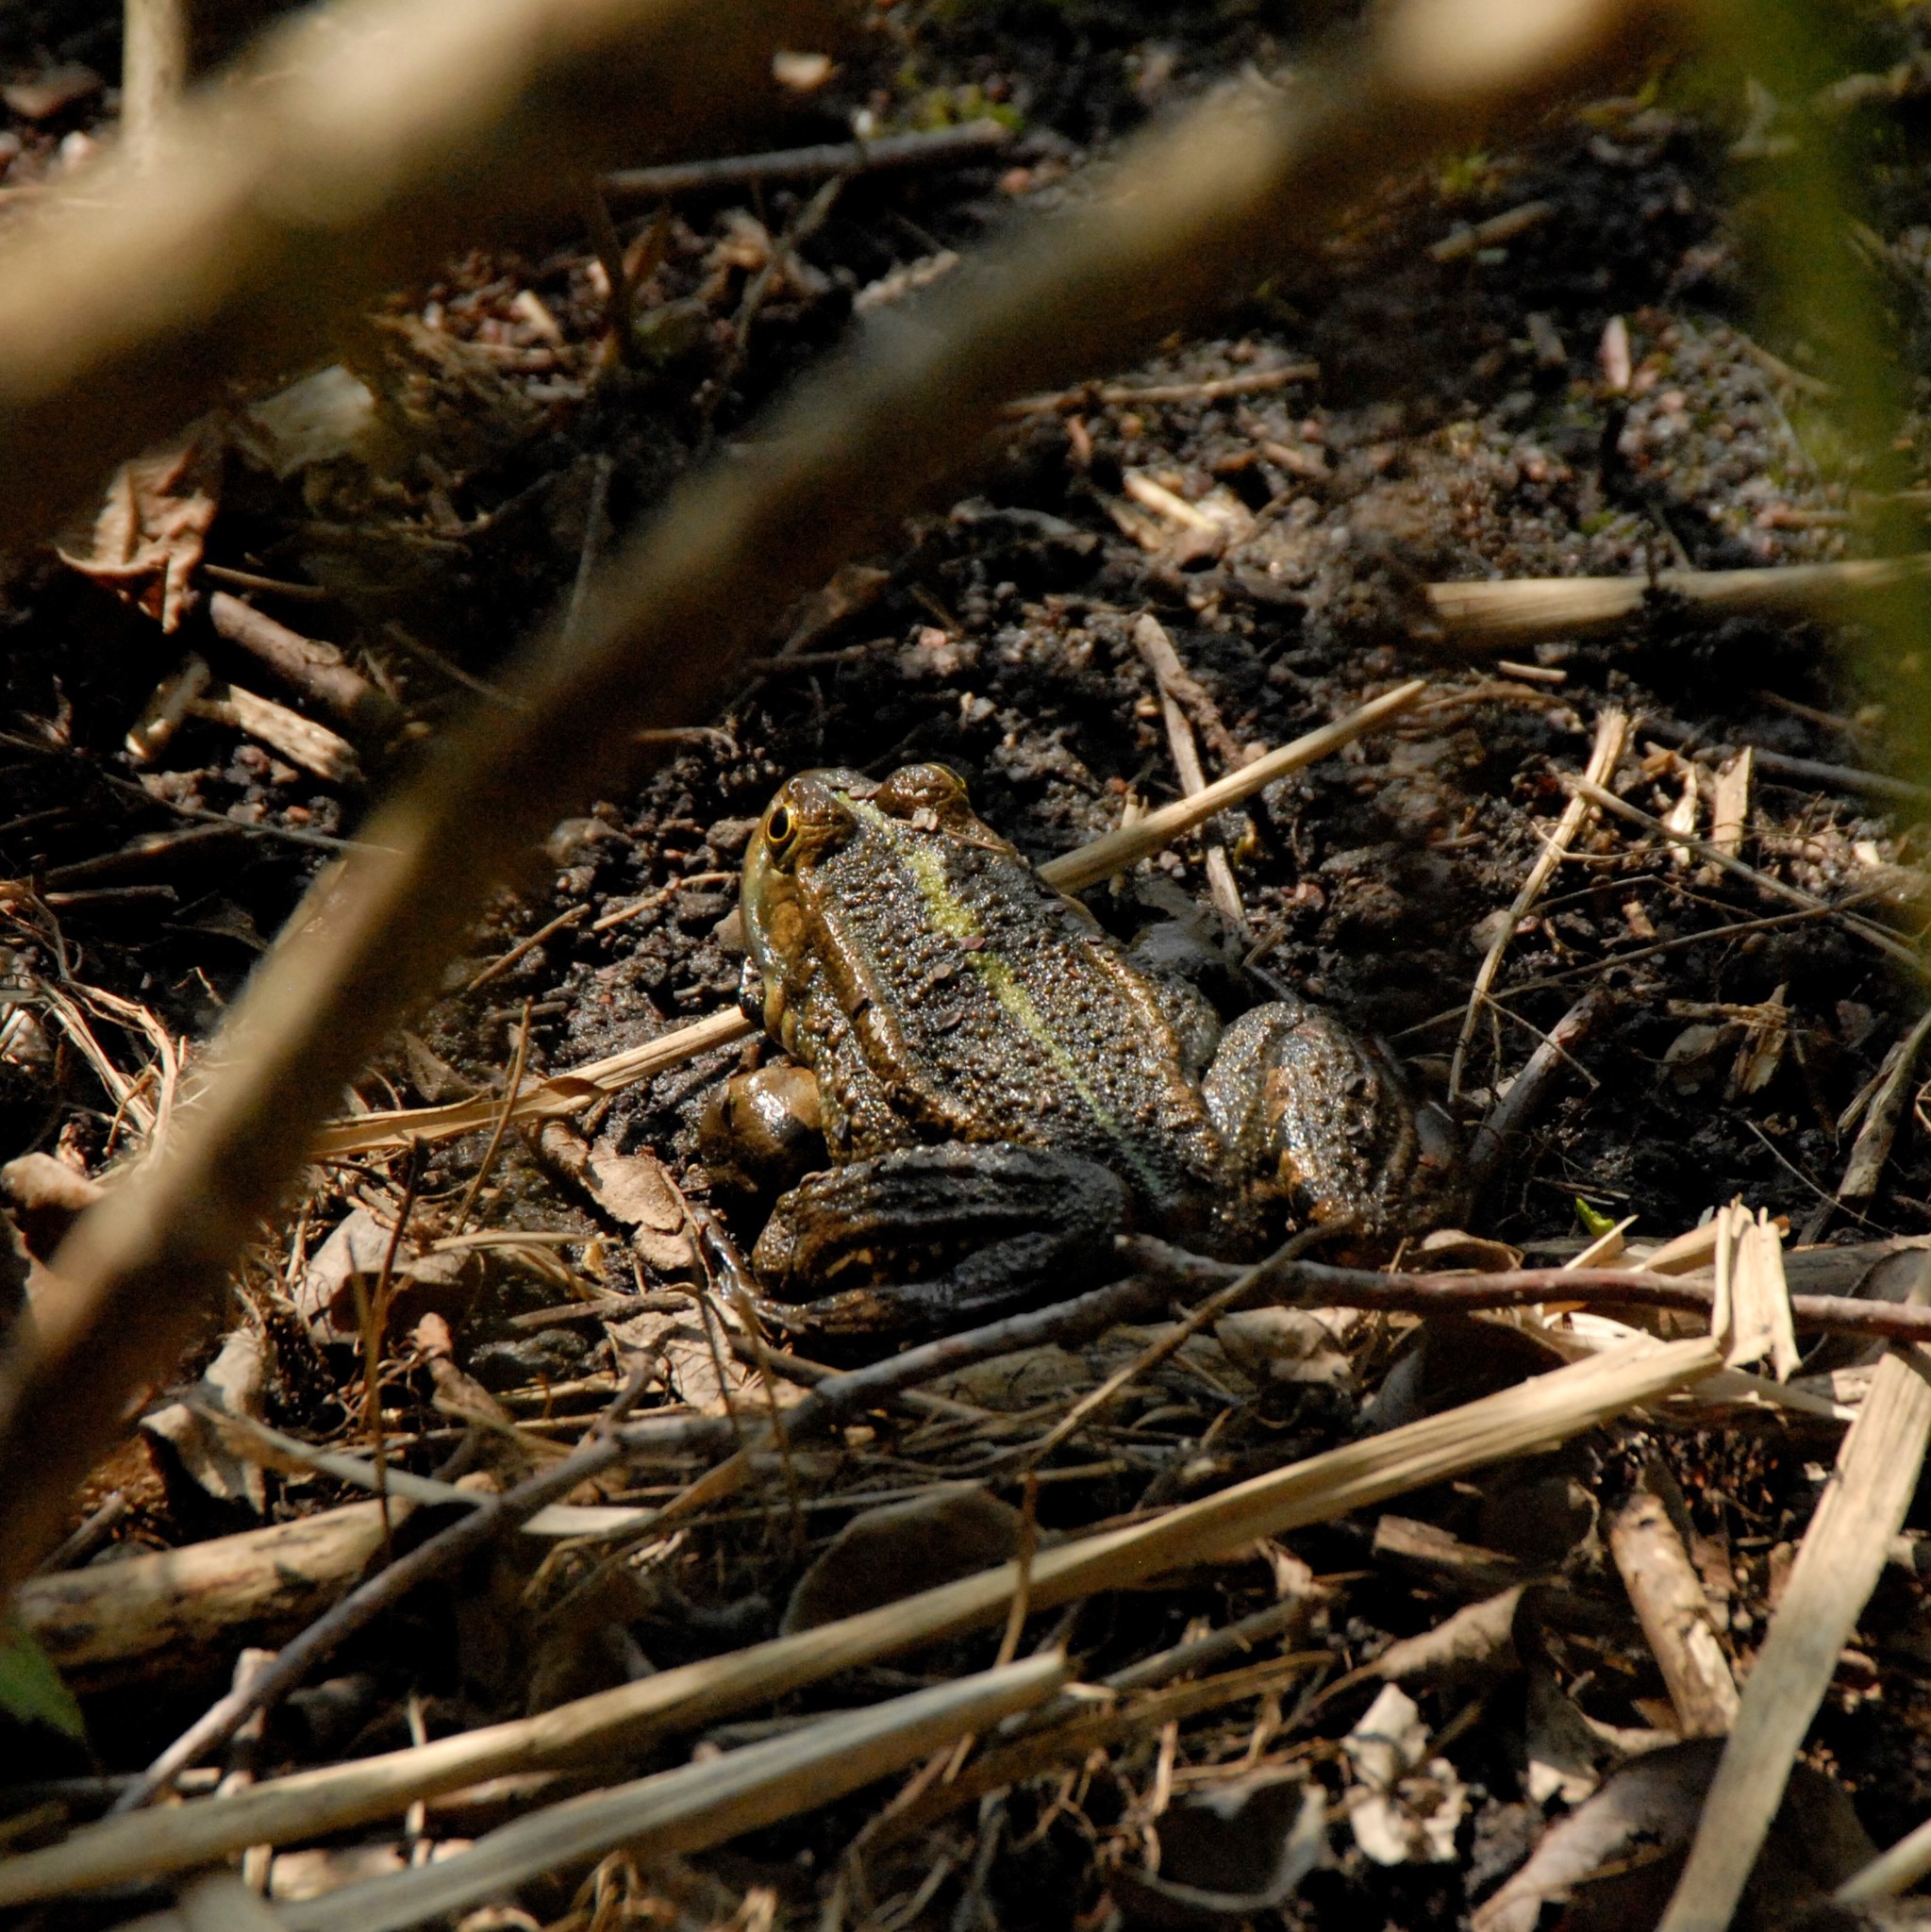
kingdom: Animalia
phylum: Chordata
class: Amphibia
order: Anura
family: Ranidae
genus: Pelophylax
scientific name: Pelophylax ridibundus
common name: Marsh frog
